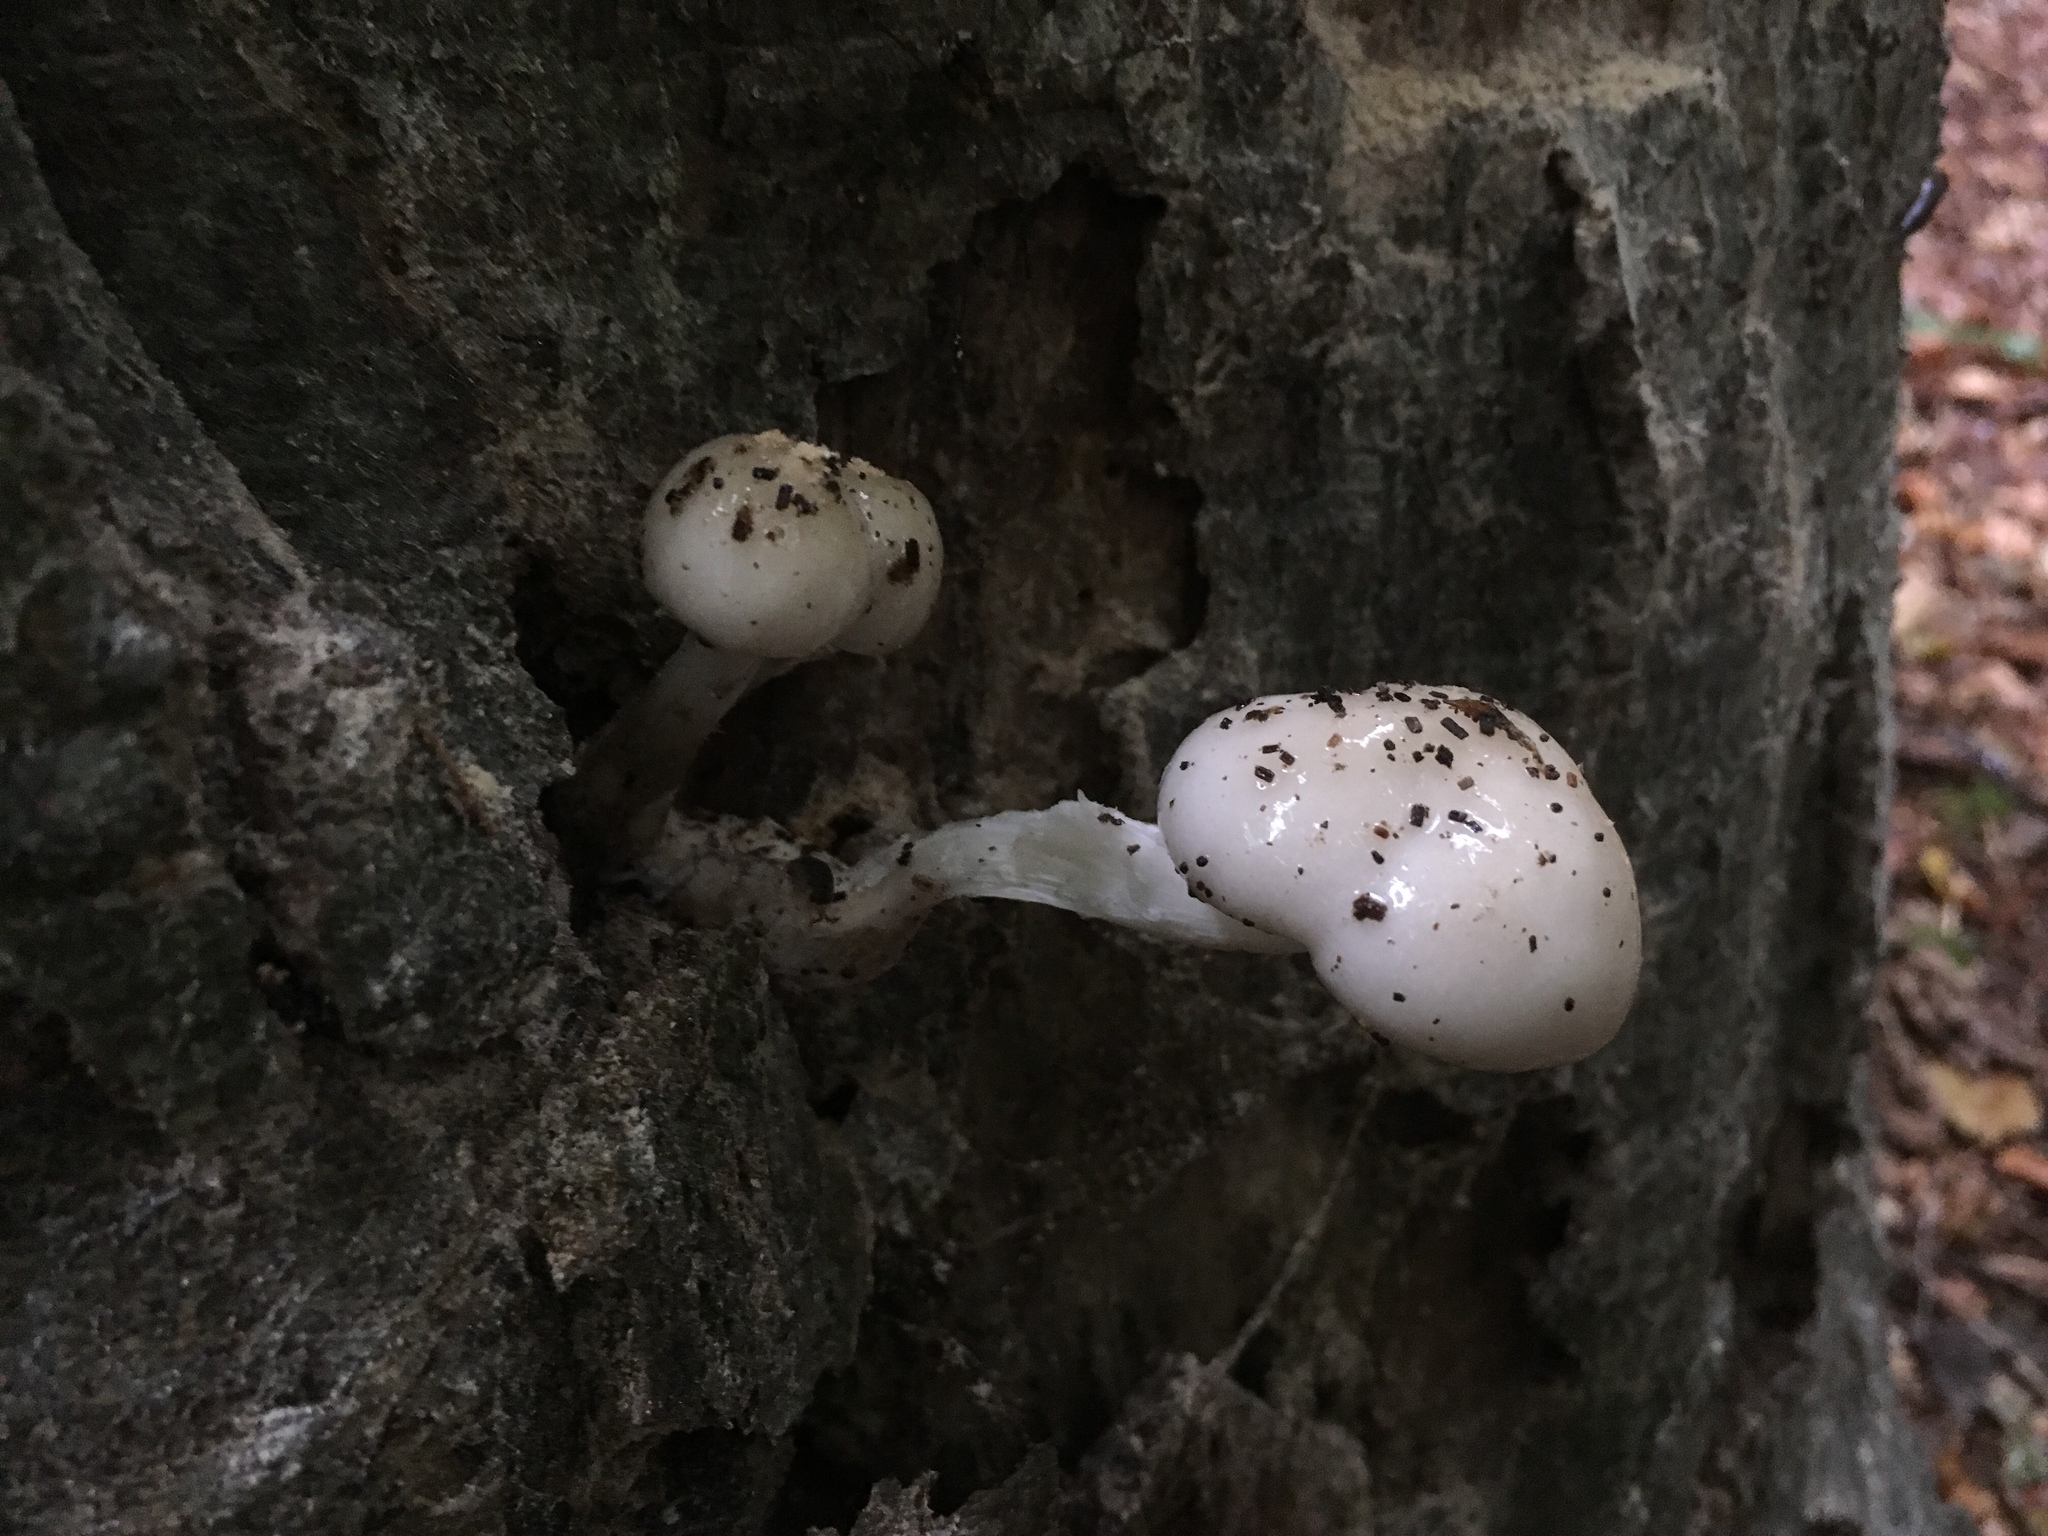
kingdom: Fungi
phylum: Basidiomycota
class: Agaricomycetes
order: Agaricales
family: Physalacriaceae
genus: Mucidula
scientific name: Mucidula mucida
